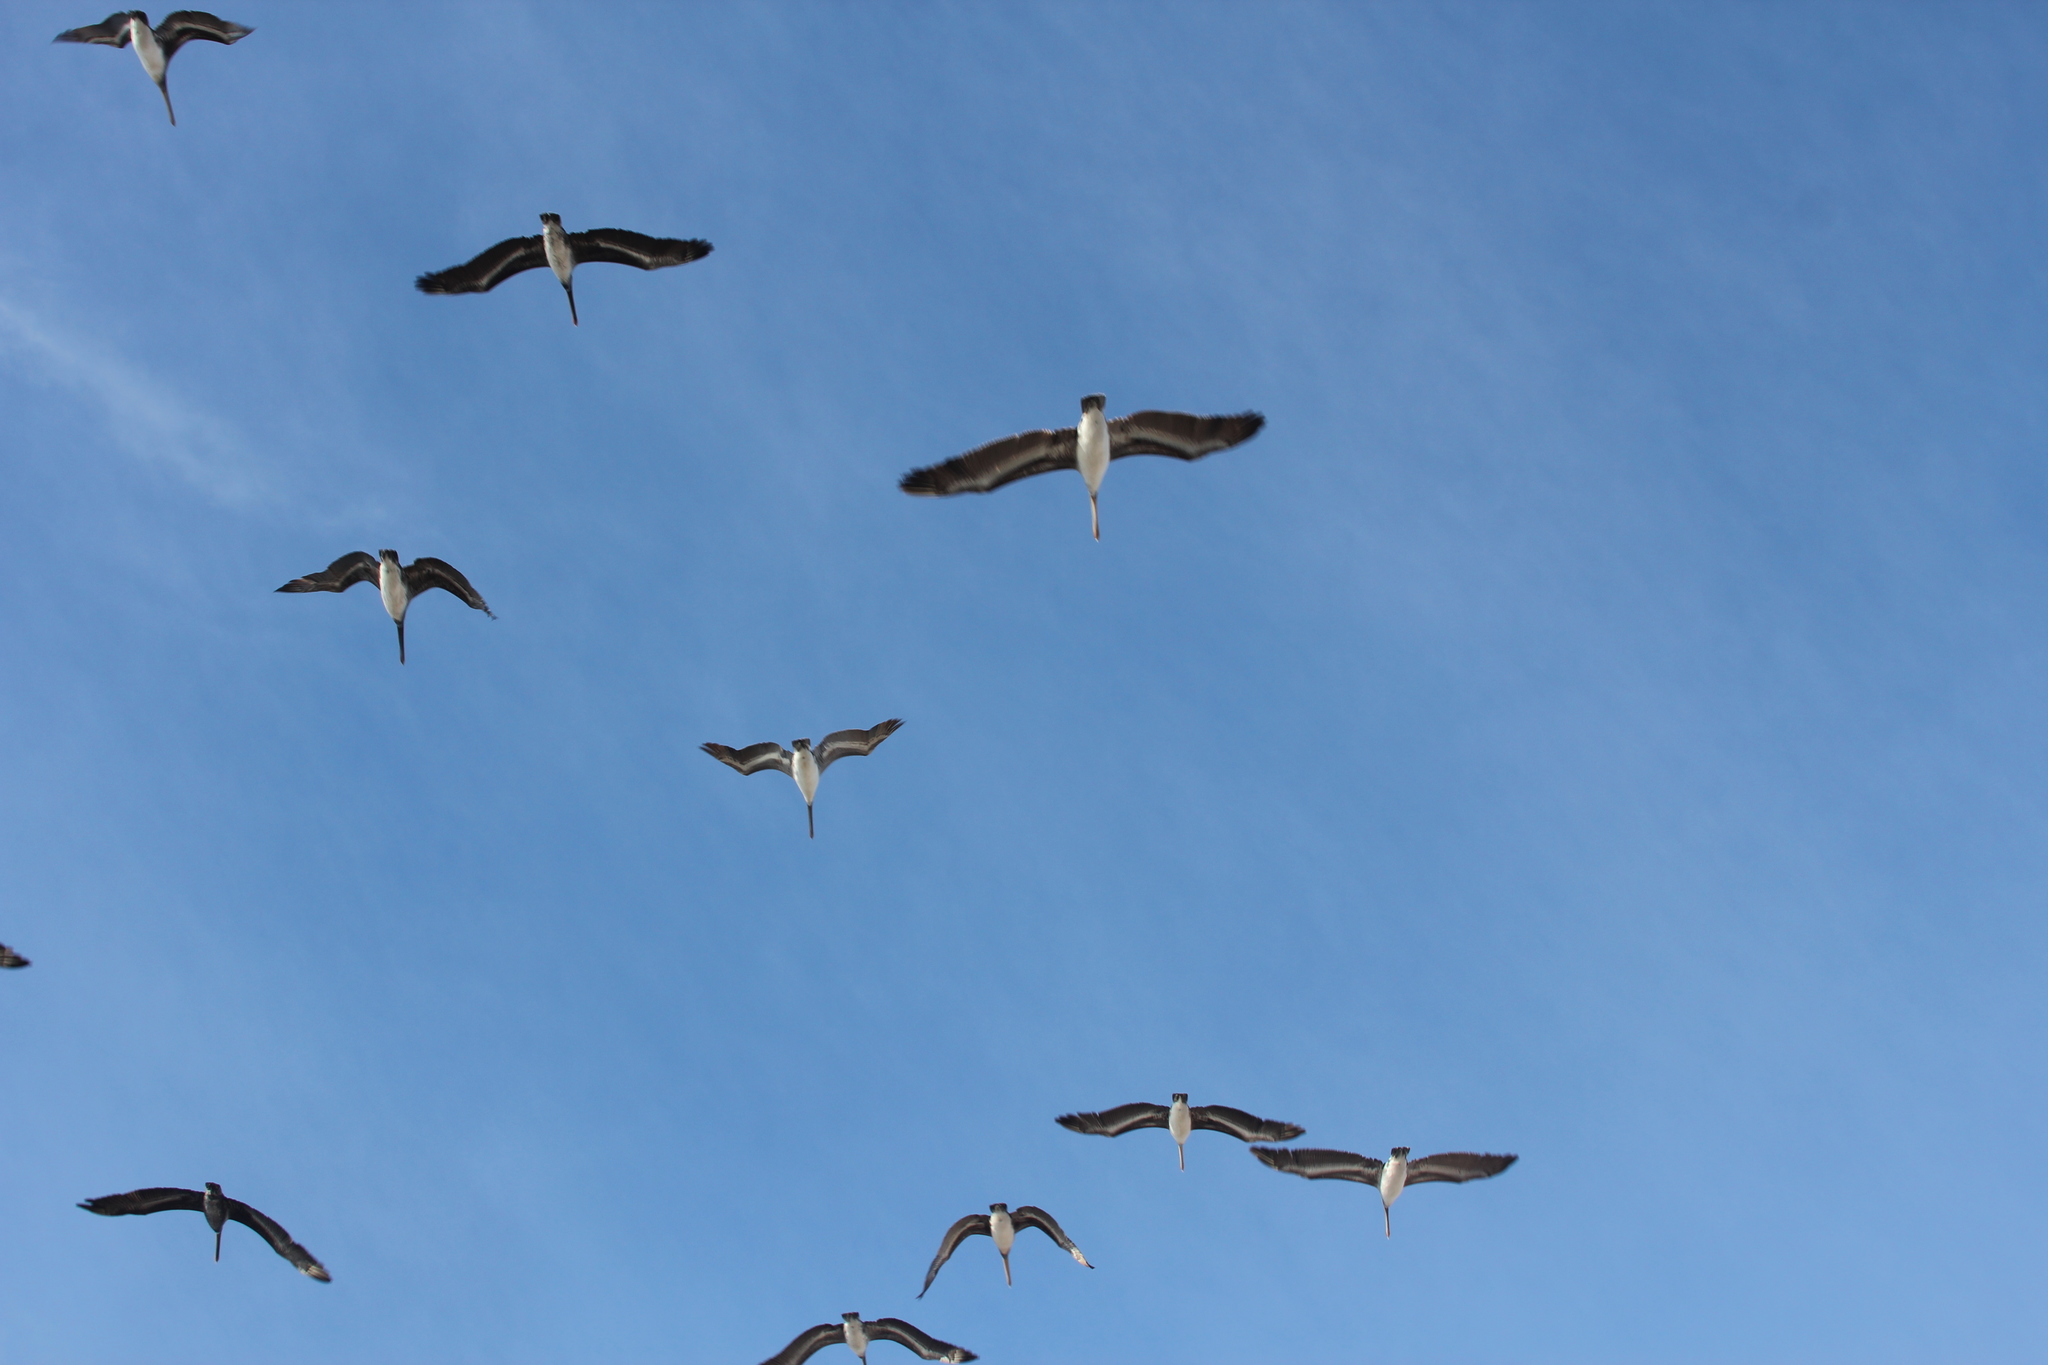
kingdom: Animalia
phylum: Chordata
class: Aves
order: Pelecaniformes
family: Pelecanidae
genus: Pelecanus
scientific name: Pelecanus occidentalis
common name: Brown pelican
